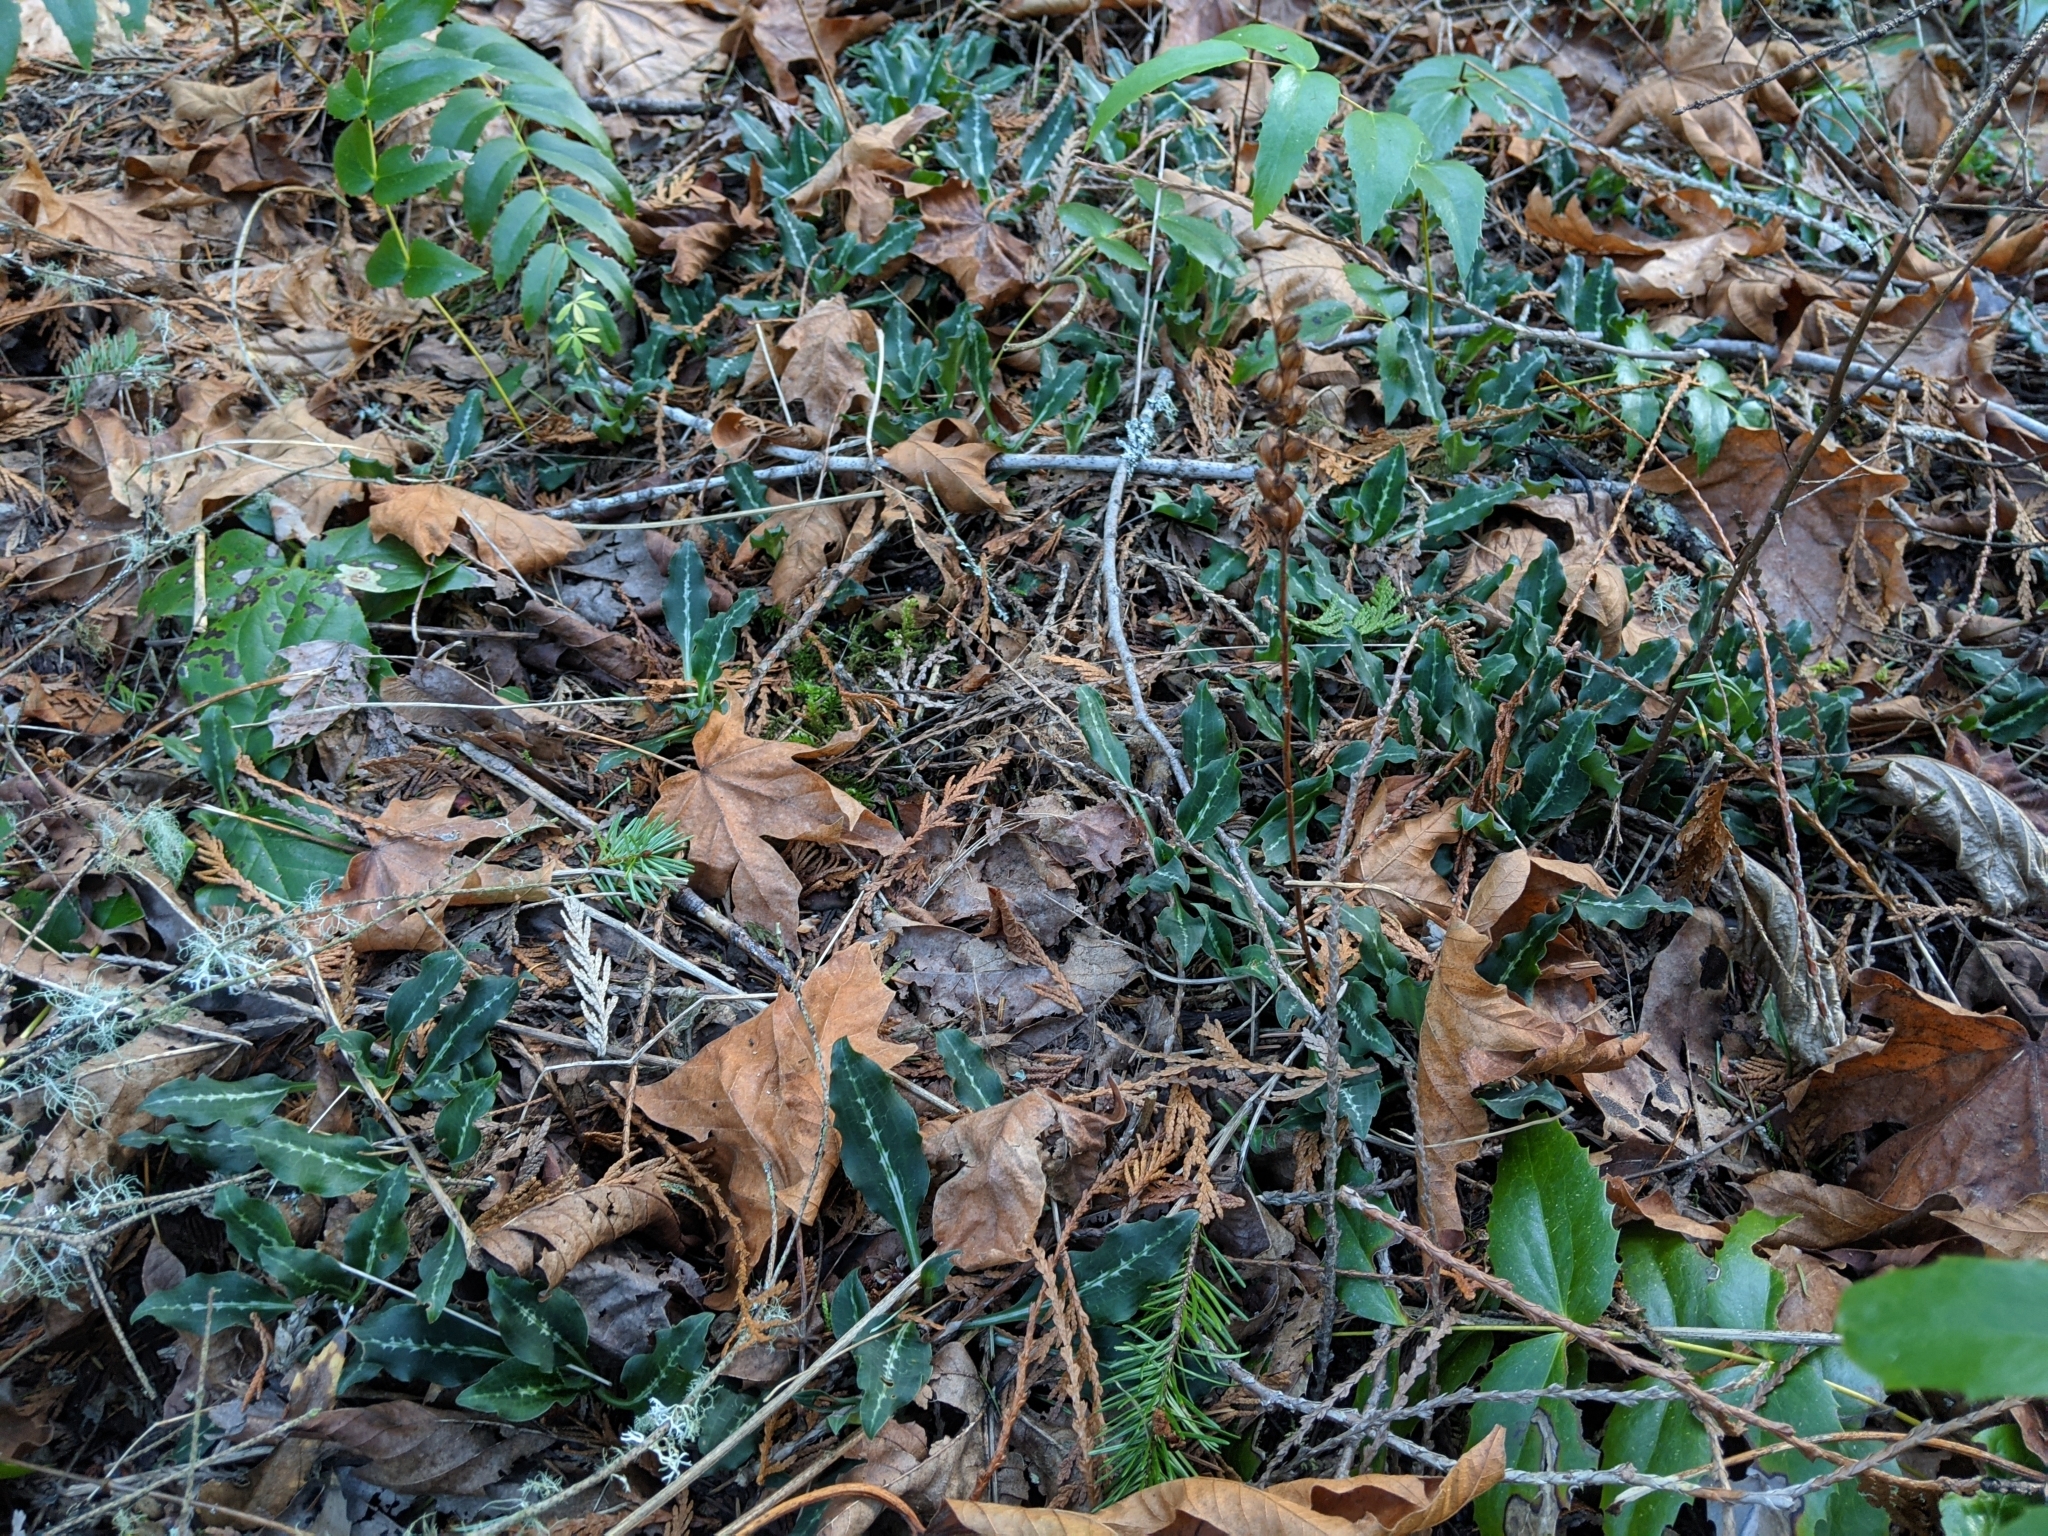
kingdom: Plantae
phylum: Tracheophyta
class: Liliopsida
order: Asparagales
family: Orchidaceae
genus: Goodyera
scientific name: Goodyera oblongifolia
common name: Giant rattlesnake-plantain
